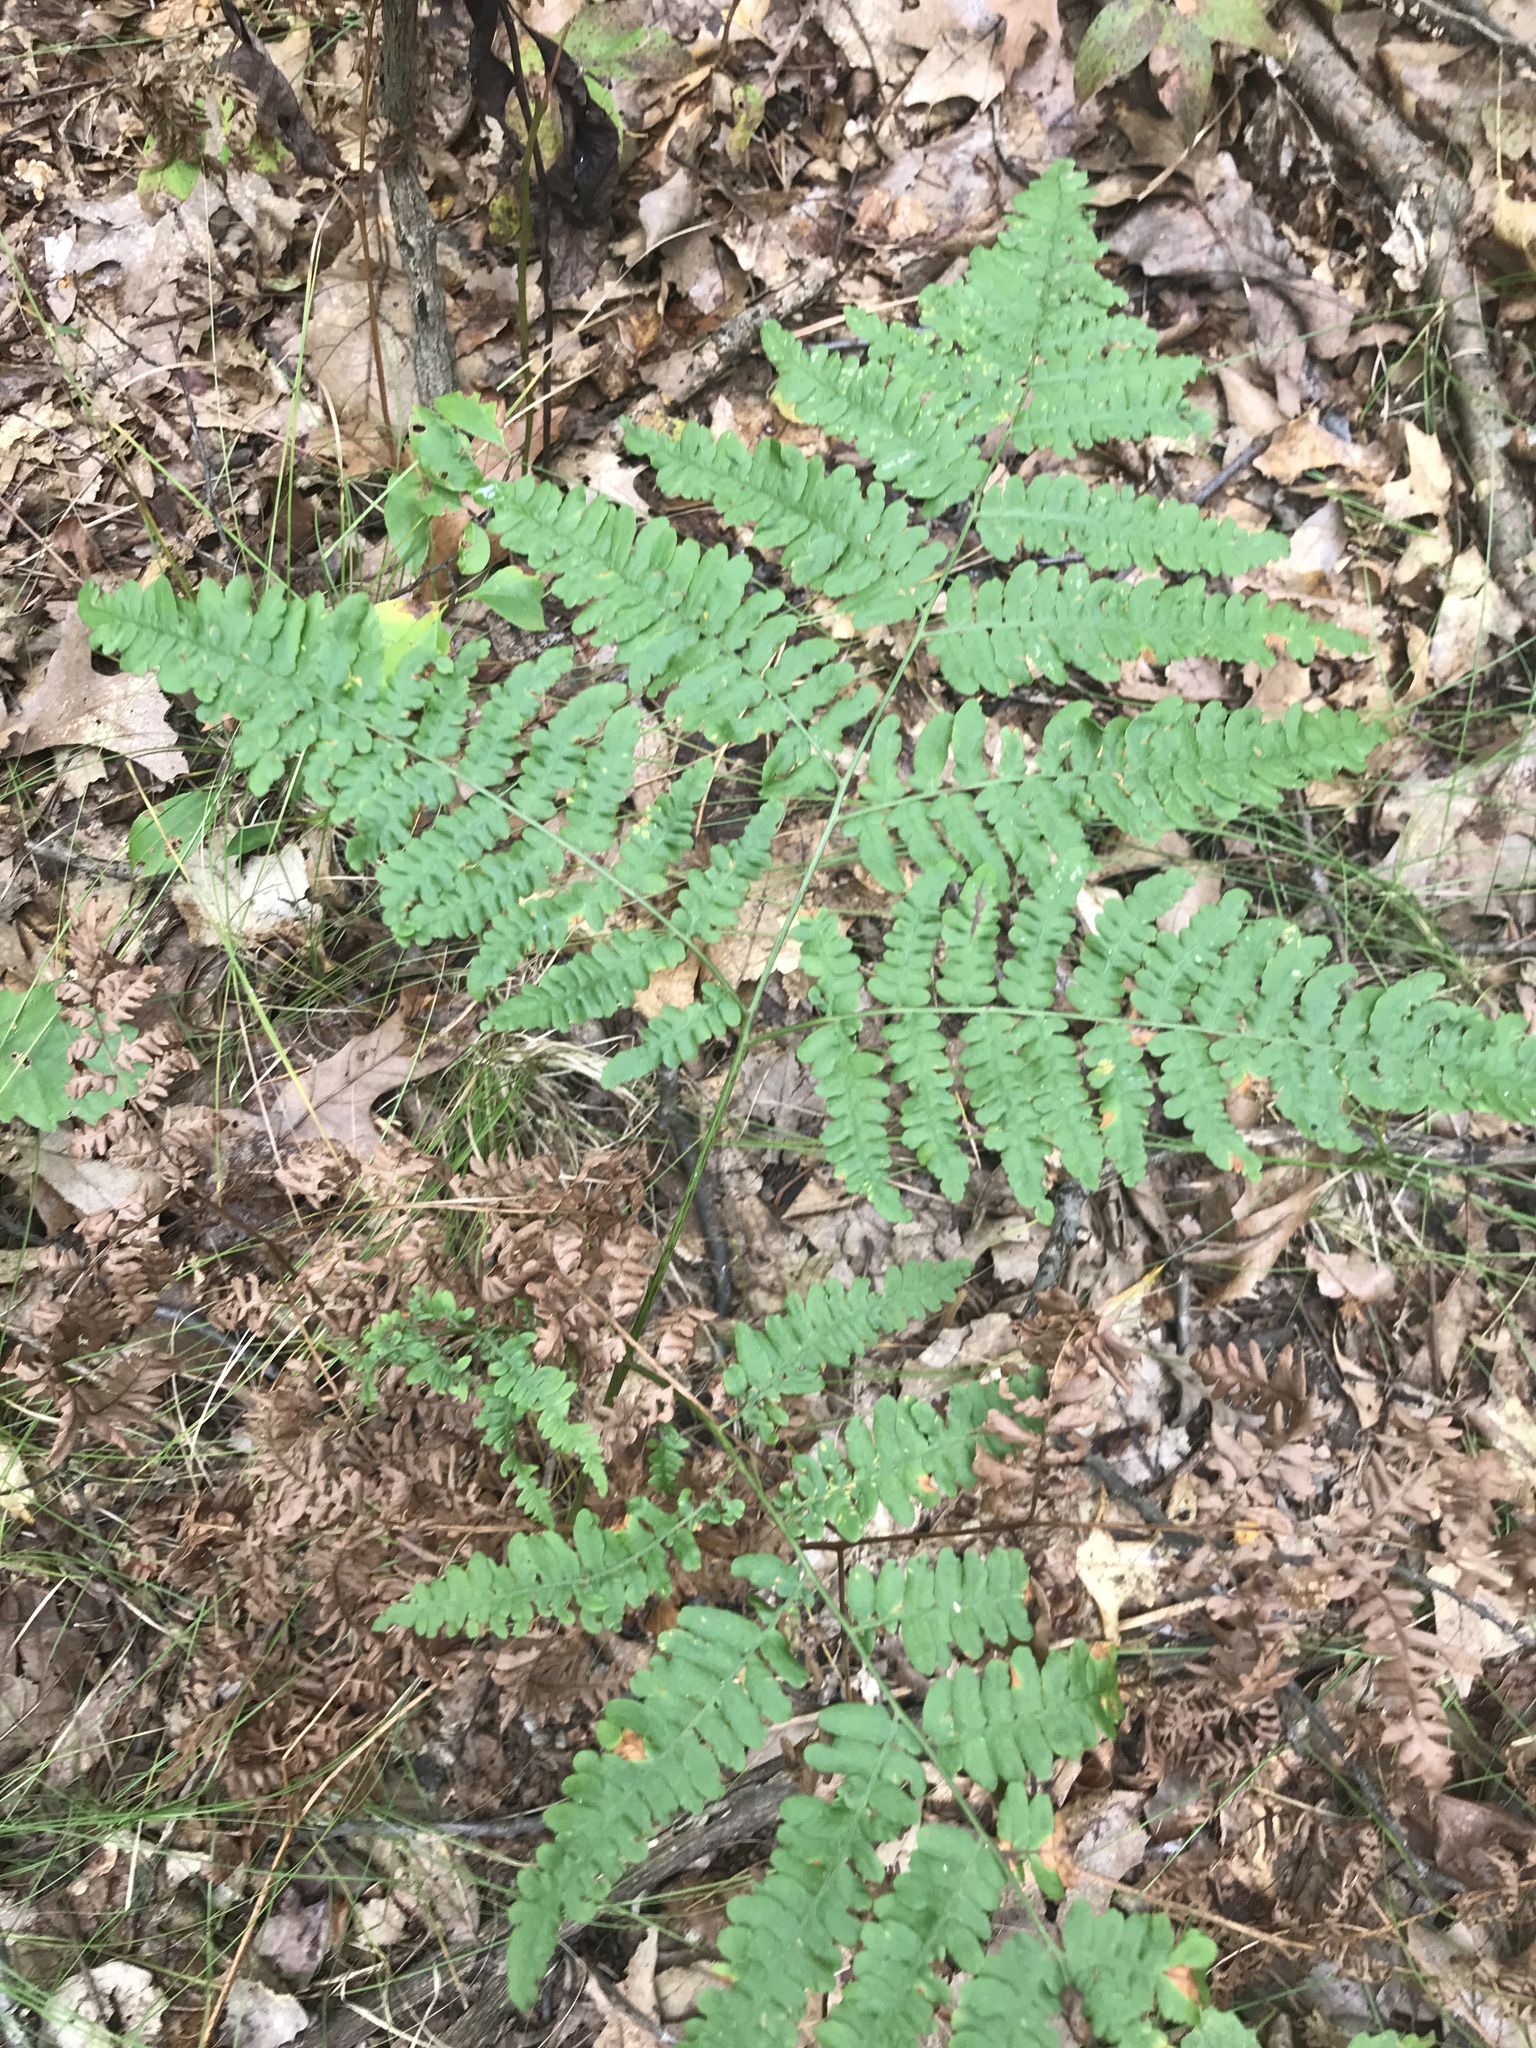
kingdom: Plantae
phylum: Tracheophyta
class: Polypodiopsida
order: Polypodiales
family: Dennstaedtiaceae
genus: Pteridium
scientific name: Pteridium aquilinum
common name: Bracken
